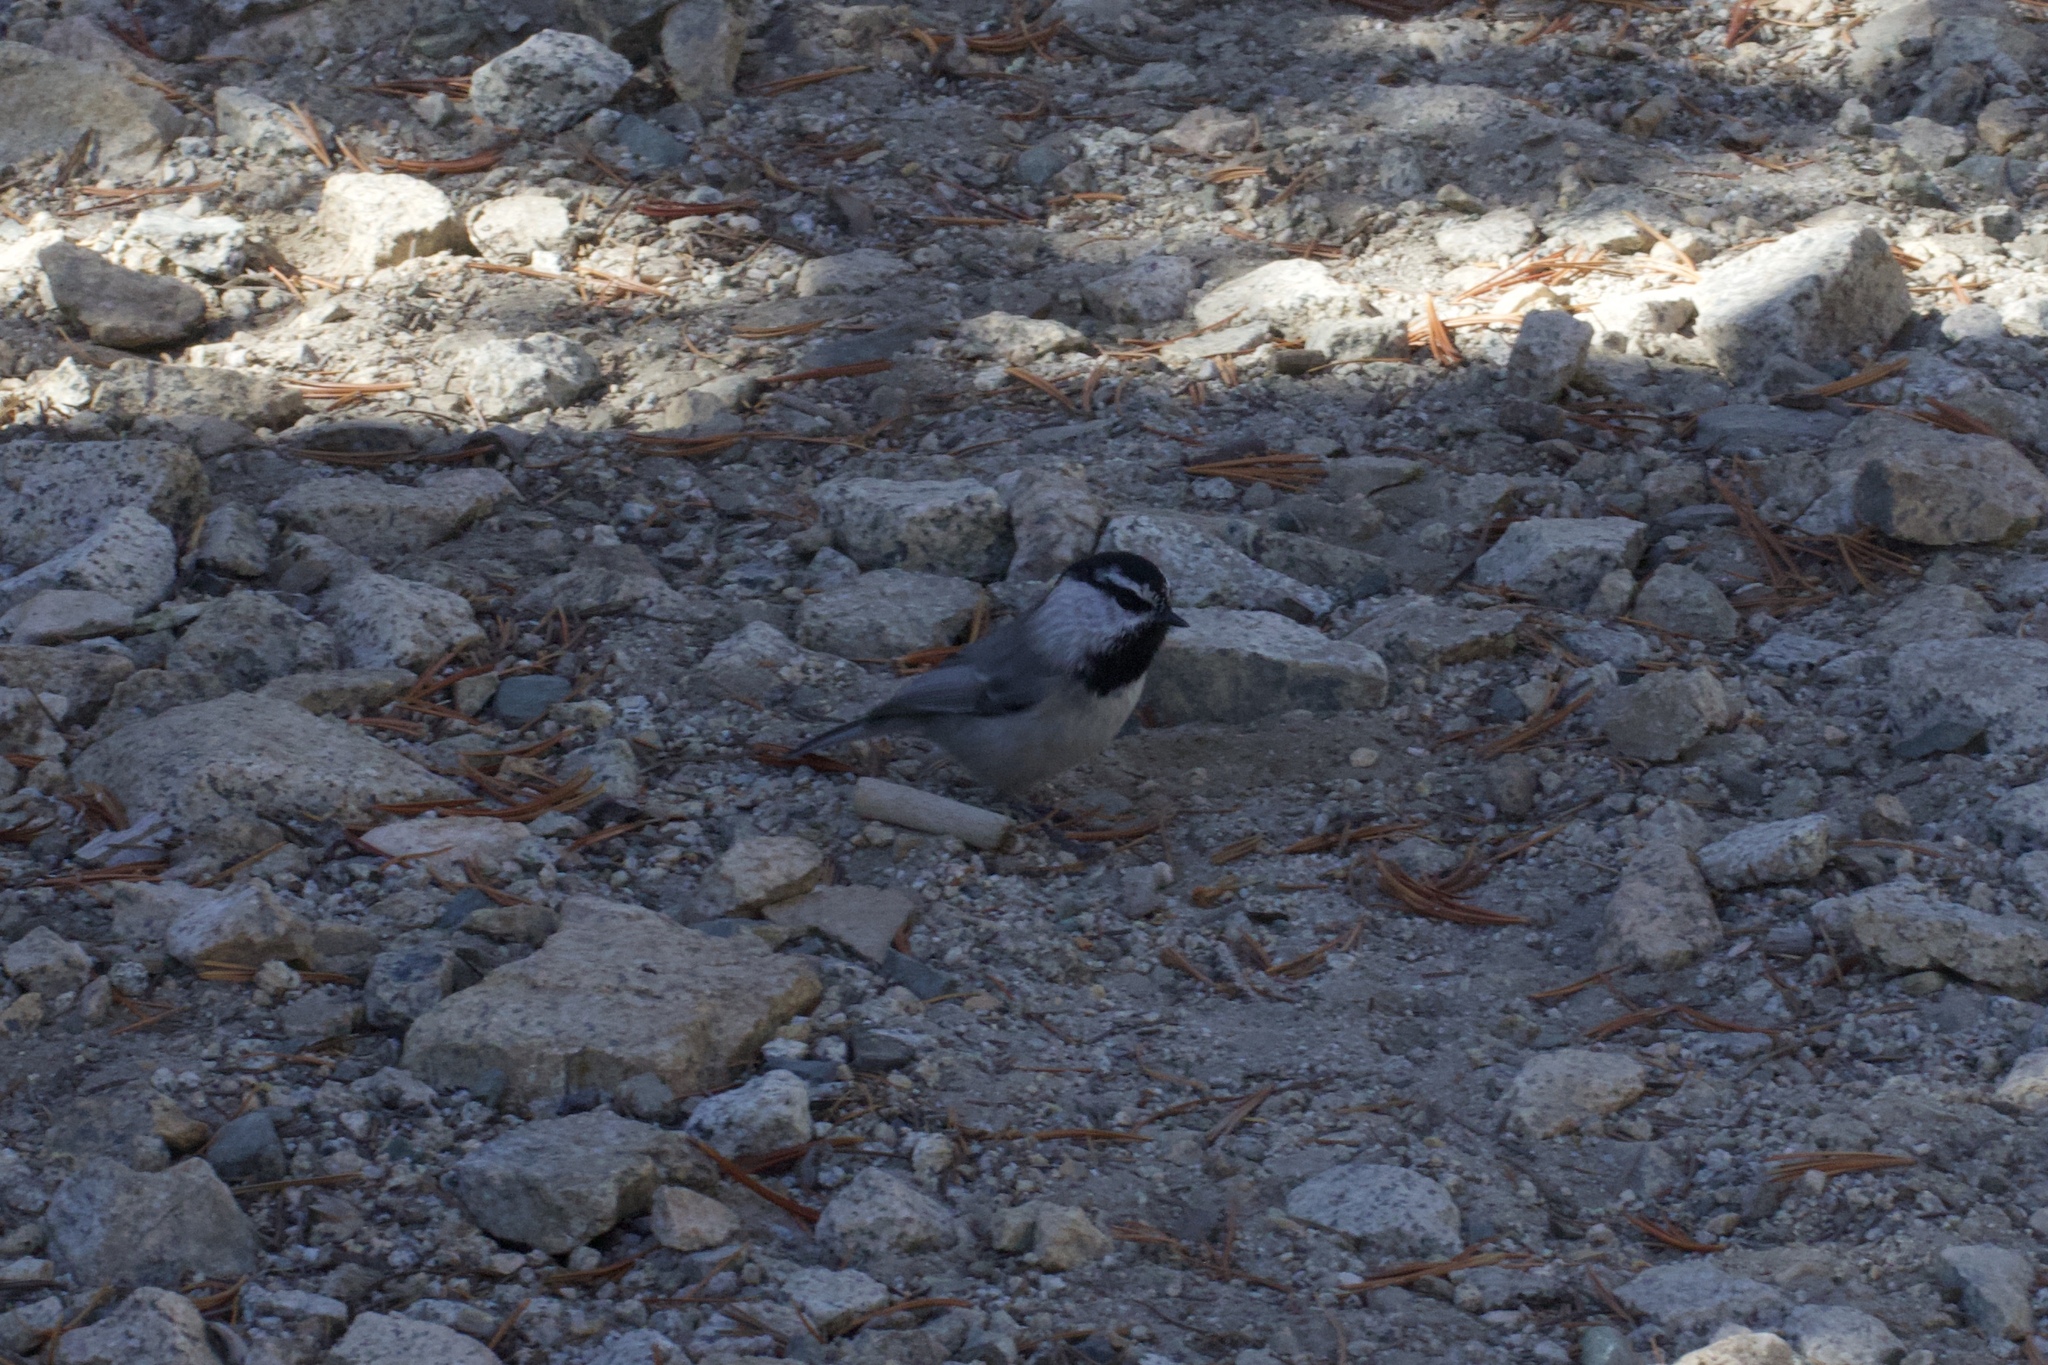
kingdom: Animalia
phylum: Chordata
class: Aves
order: Passeriformes
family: Paridae
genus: Poecile
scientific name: Poecile gambeli
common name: Mountain chickadee
